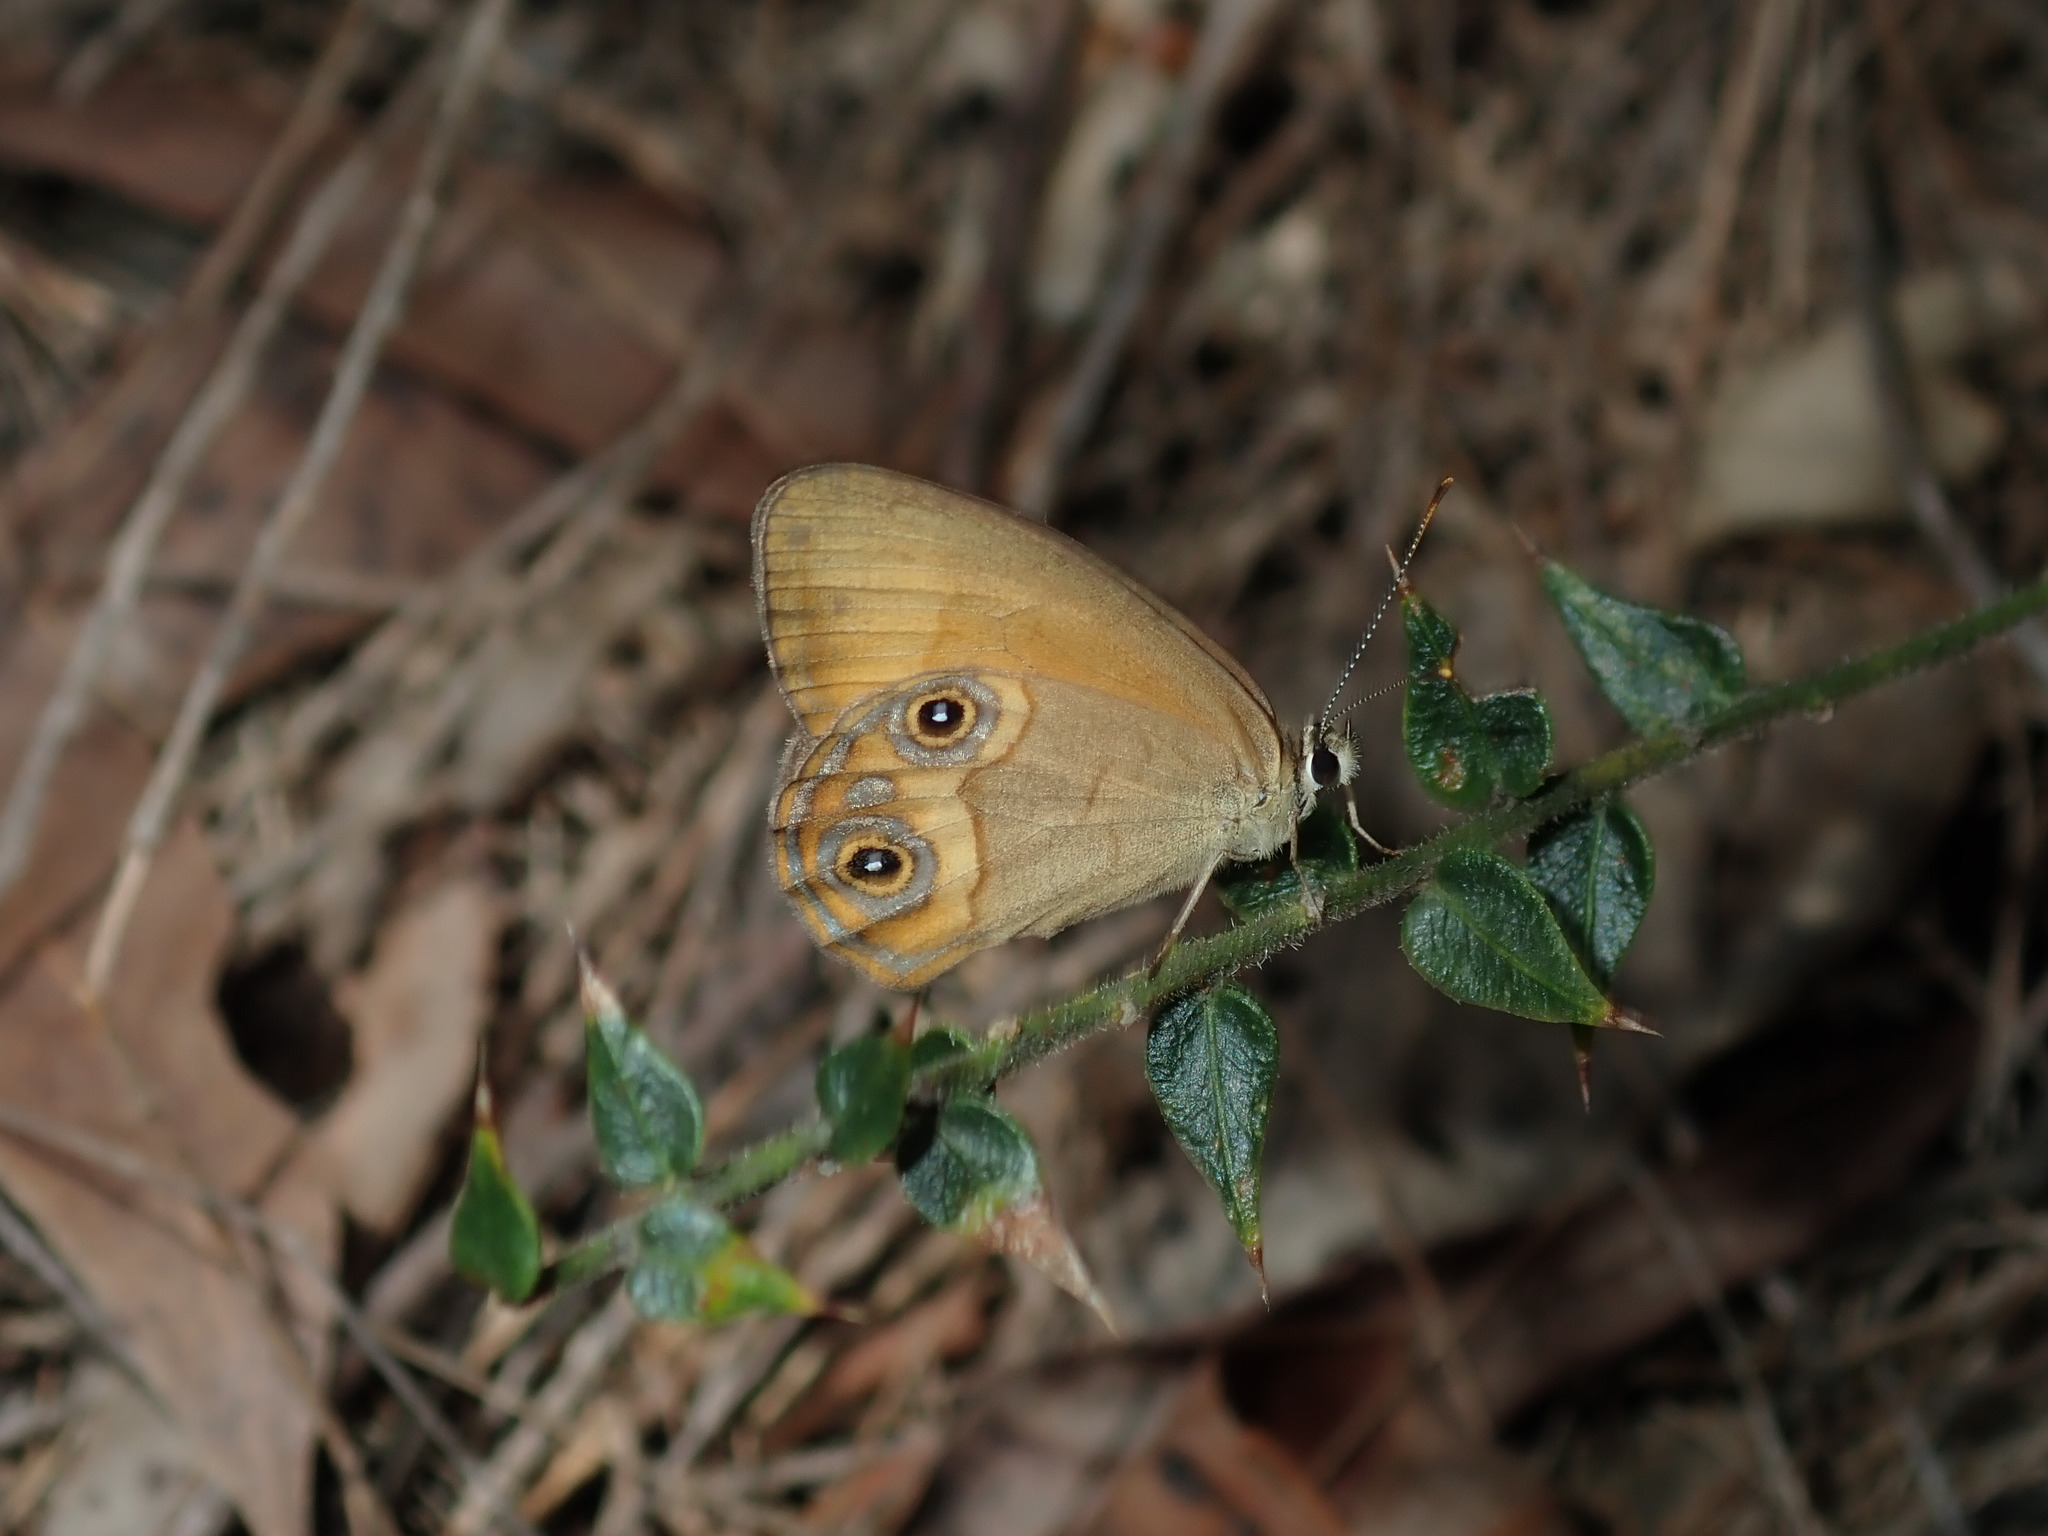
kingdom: Animalia
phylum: Arthropoda
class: Insecta
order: Lepidoptera
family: Nymphalidae
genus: Hypocysta
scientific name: Hypocysta adiante
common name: Orange ringlet
